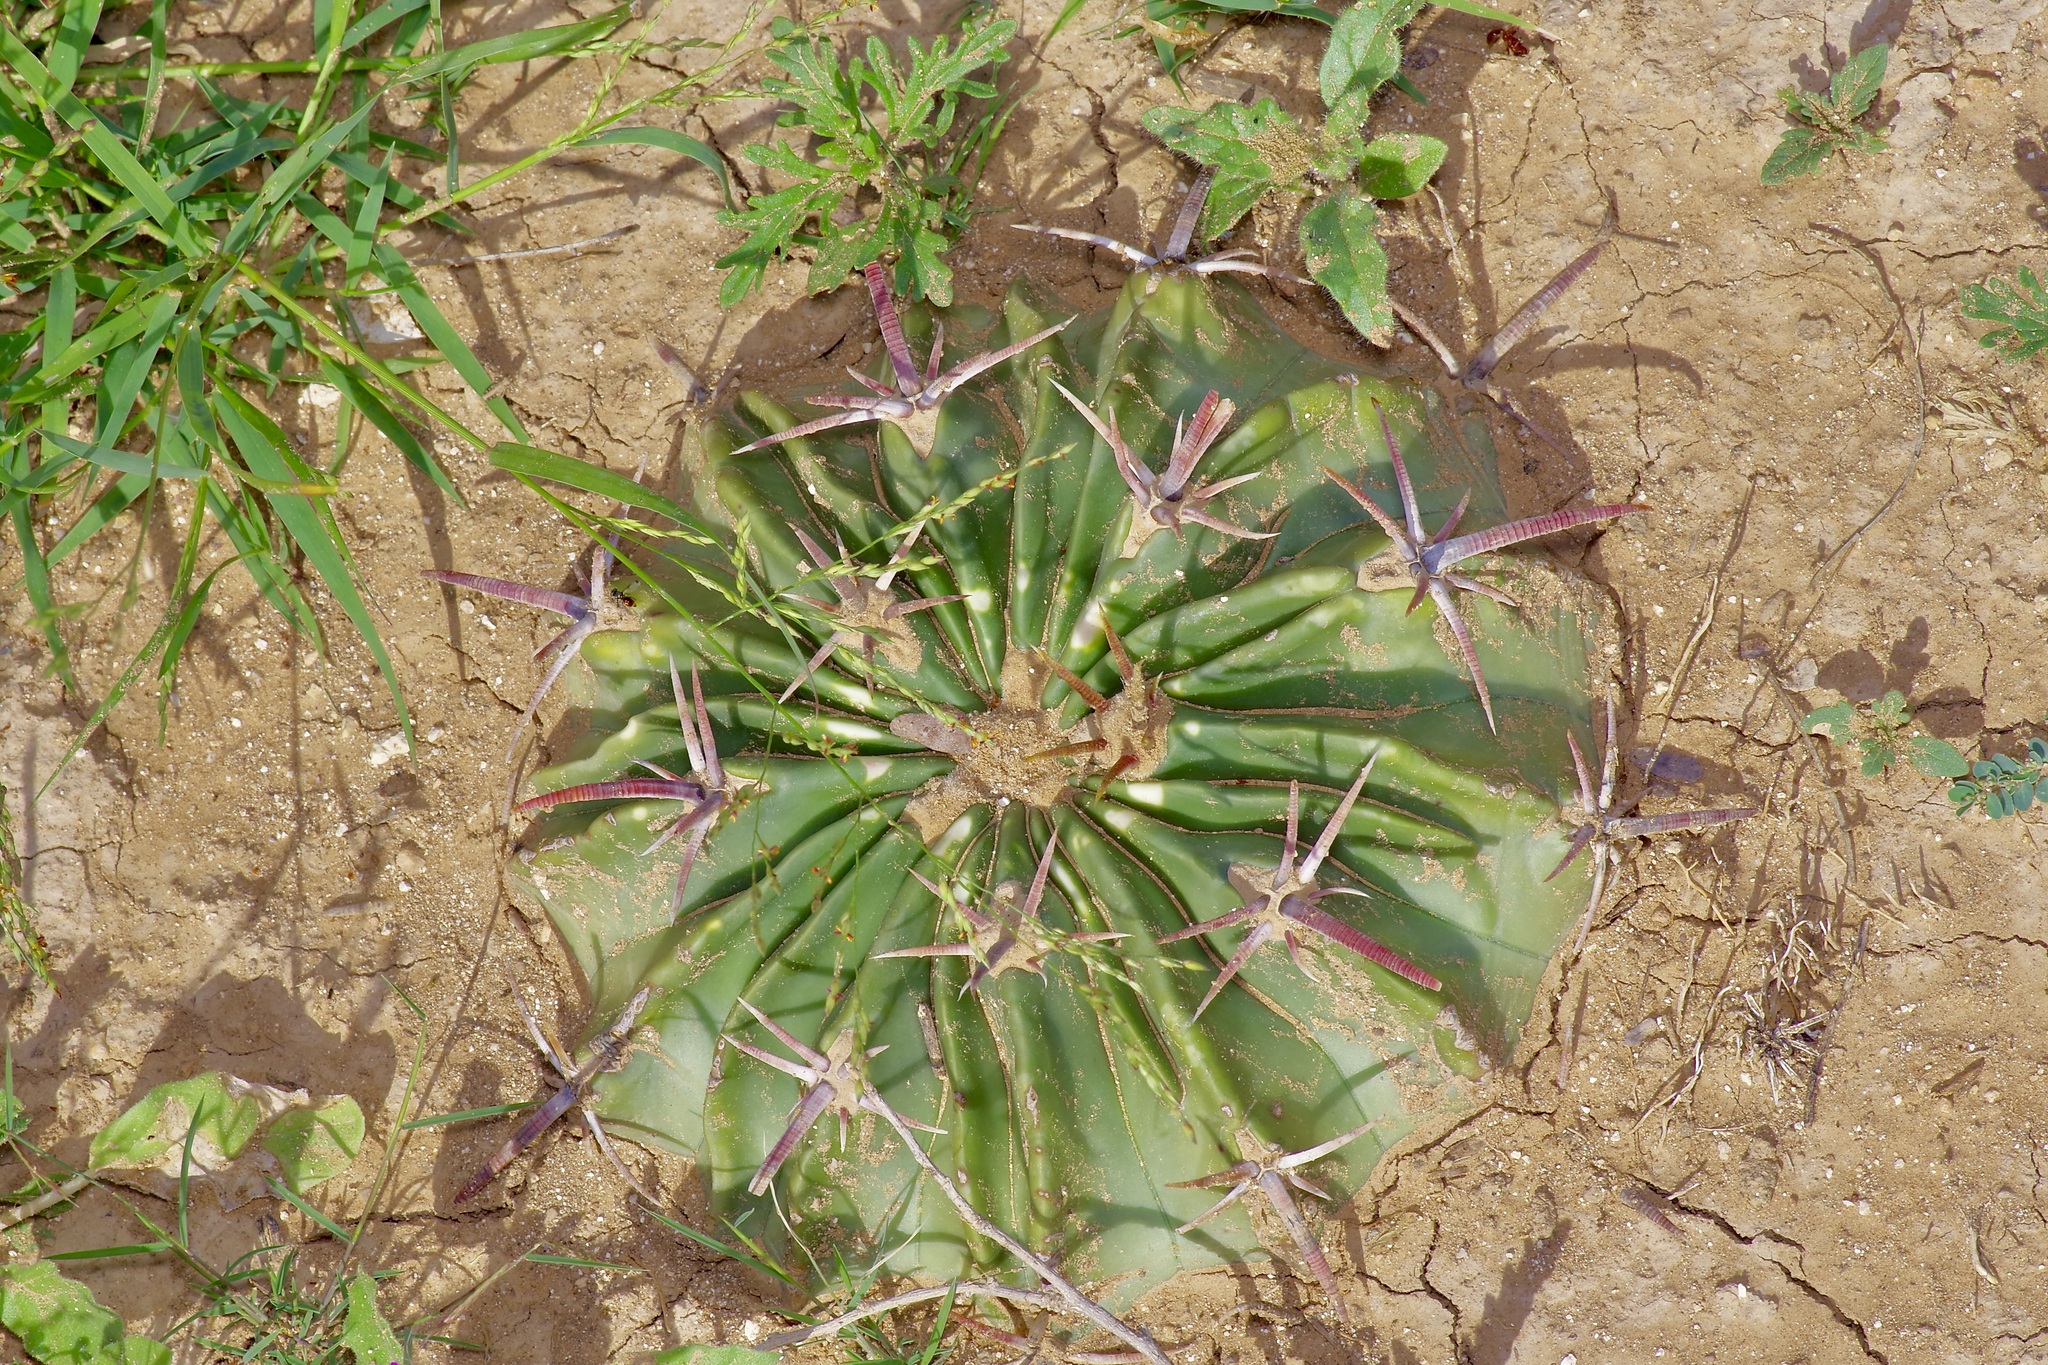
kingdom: Plantae
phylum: Tracheophyta
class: Magnoliopsida
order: Caryophyllales
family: Cactaceae
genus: Echinocactus
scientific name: Echinocactus texensis
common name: Devil's pincushion
